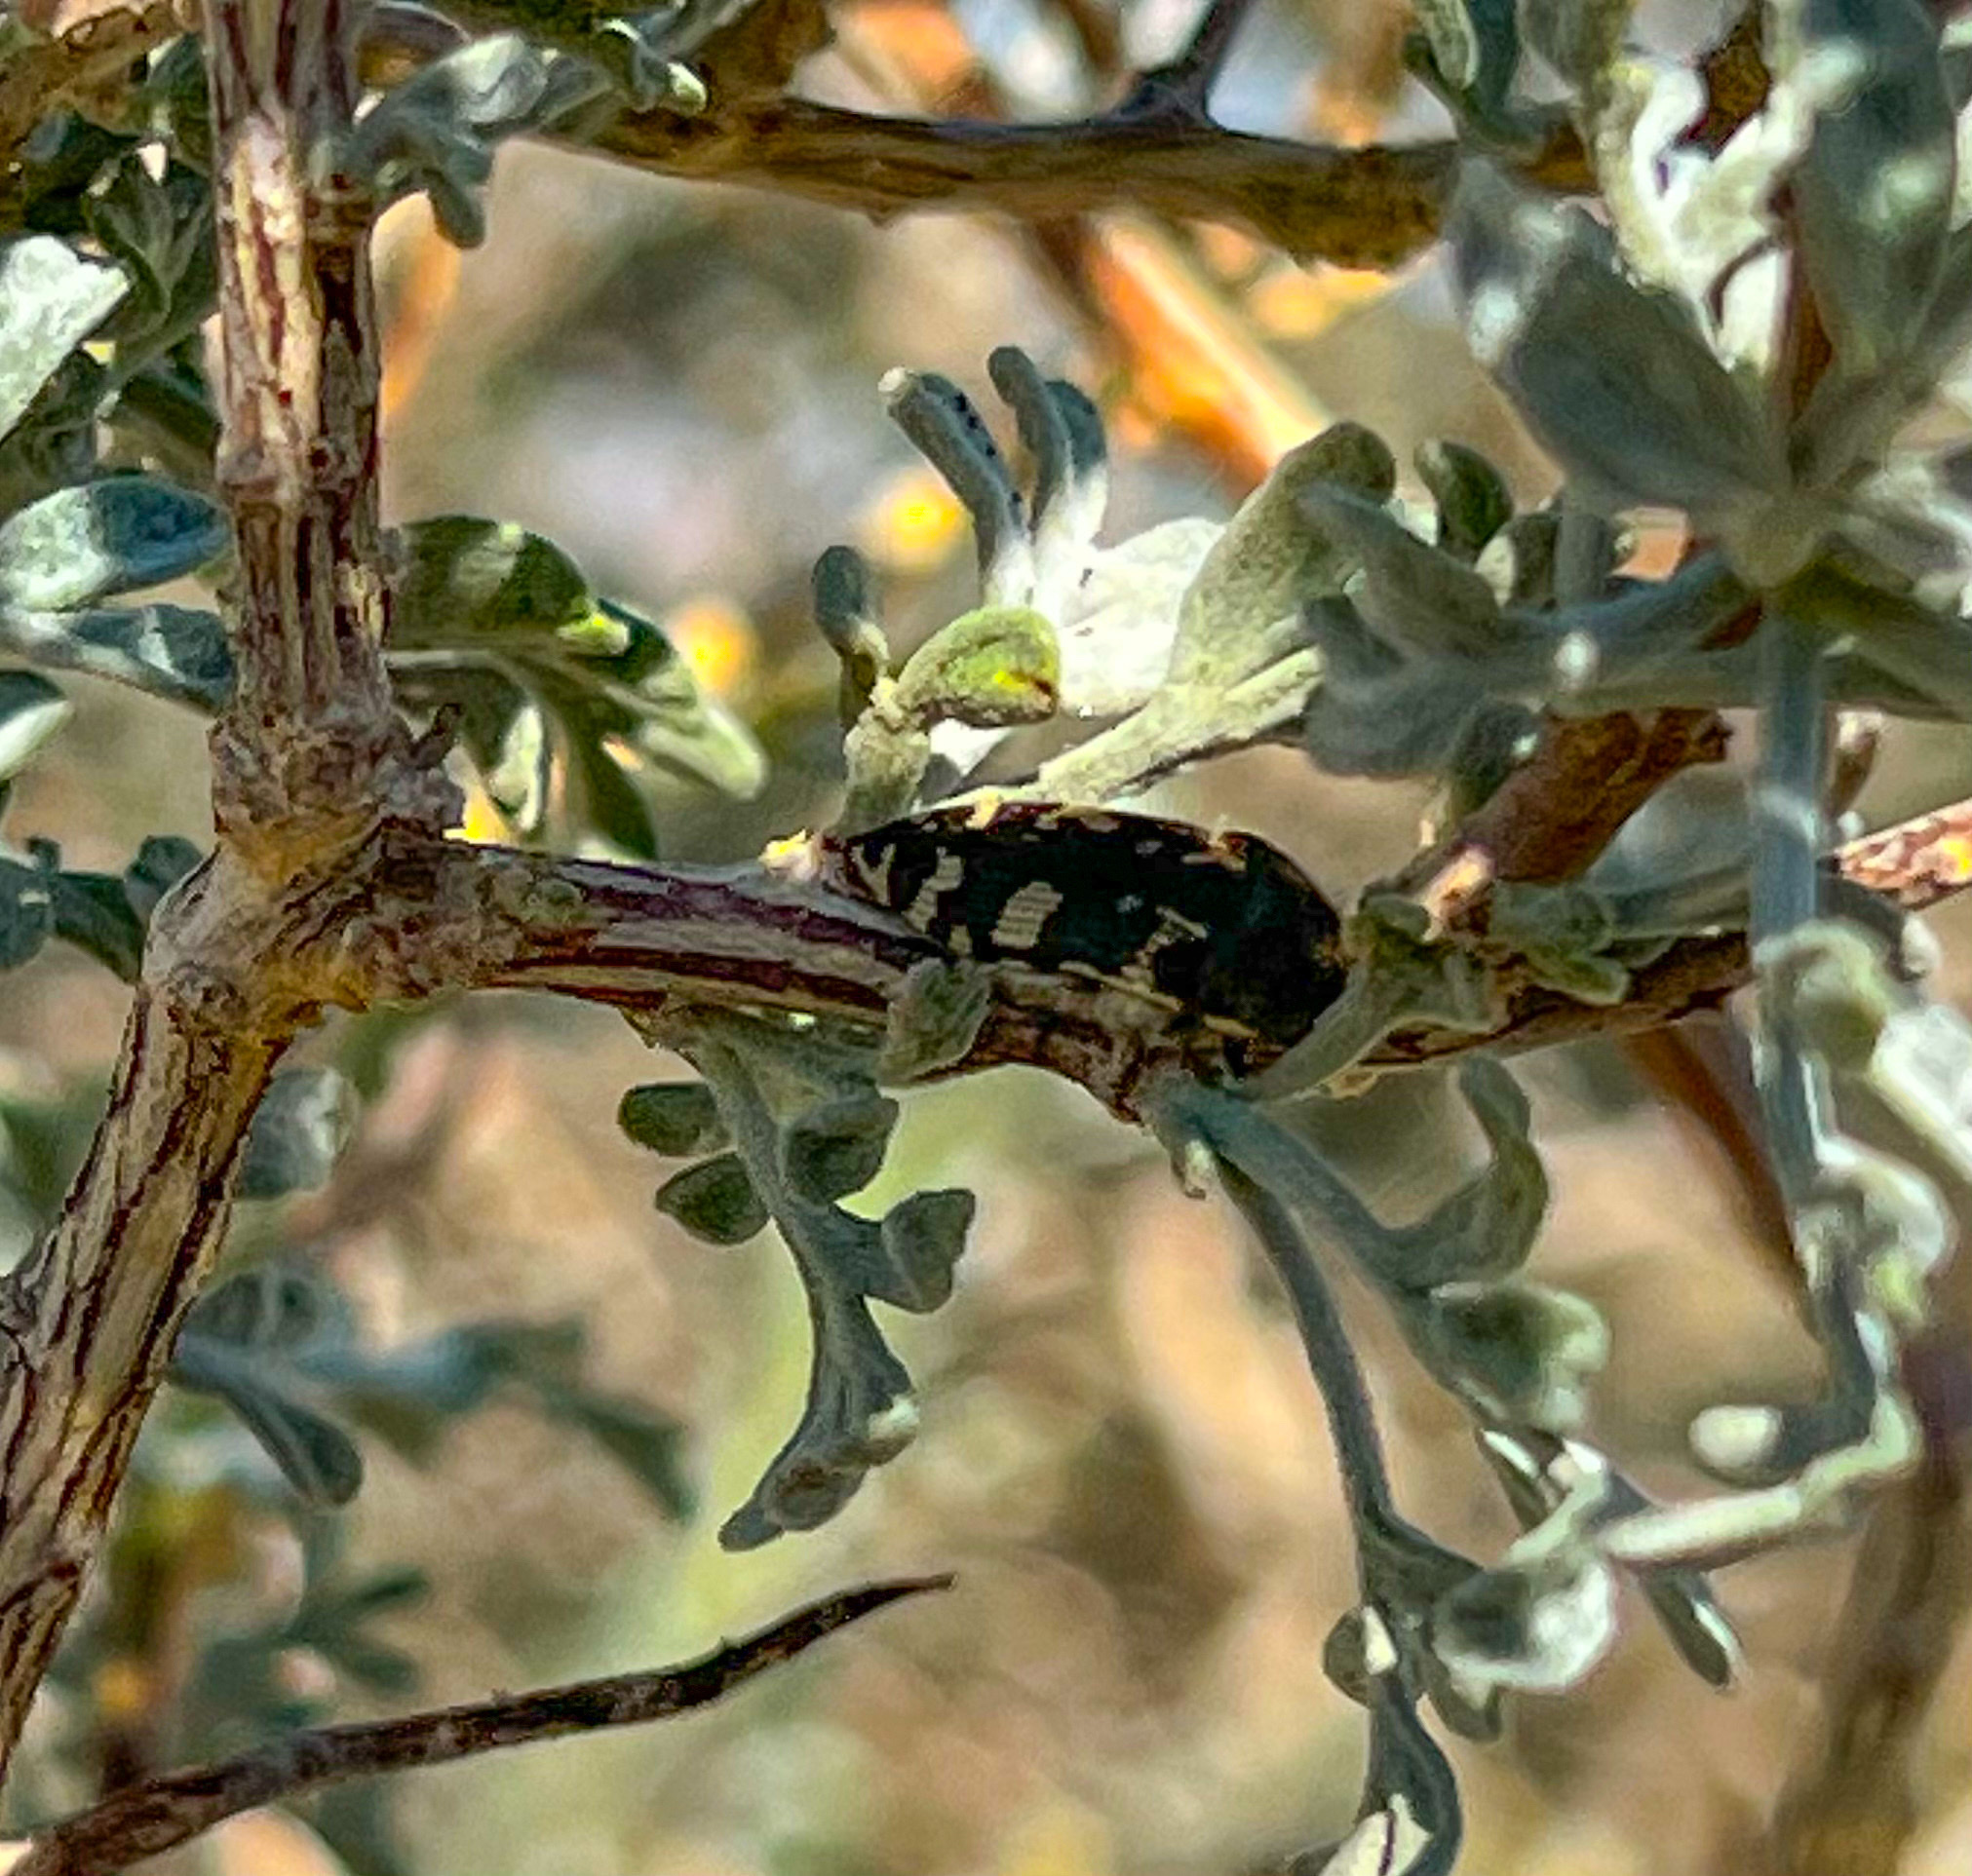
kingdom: Animalia
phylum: Arthropoda
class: Insecta
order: Coleoptera
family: Buprestidae
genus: Acmaeodera
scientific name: Acmaeodera tuta
